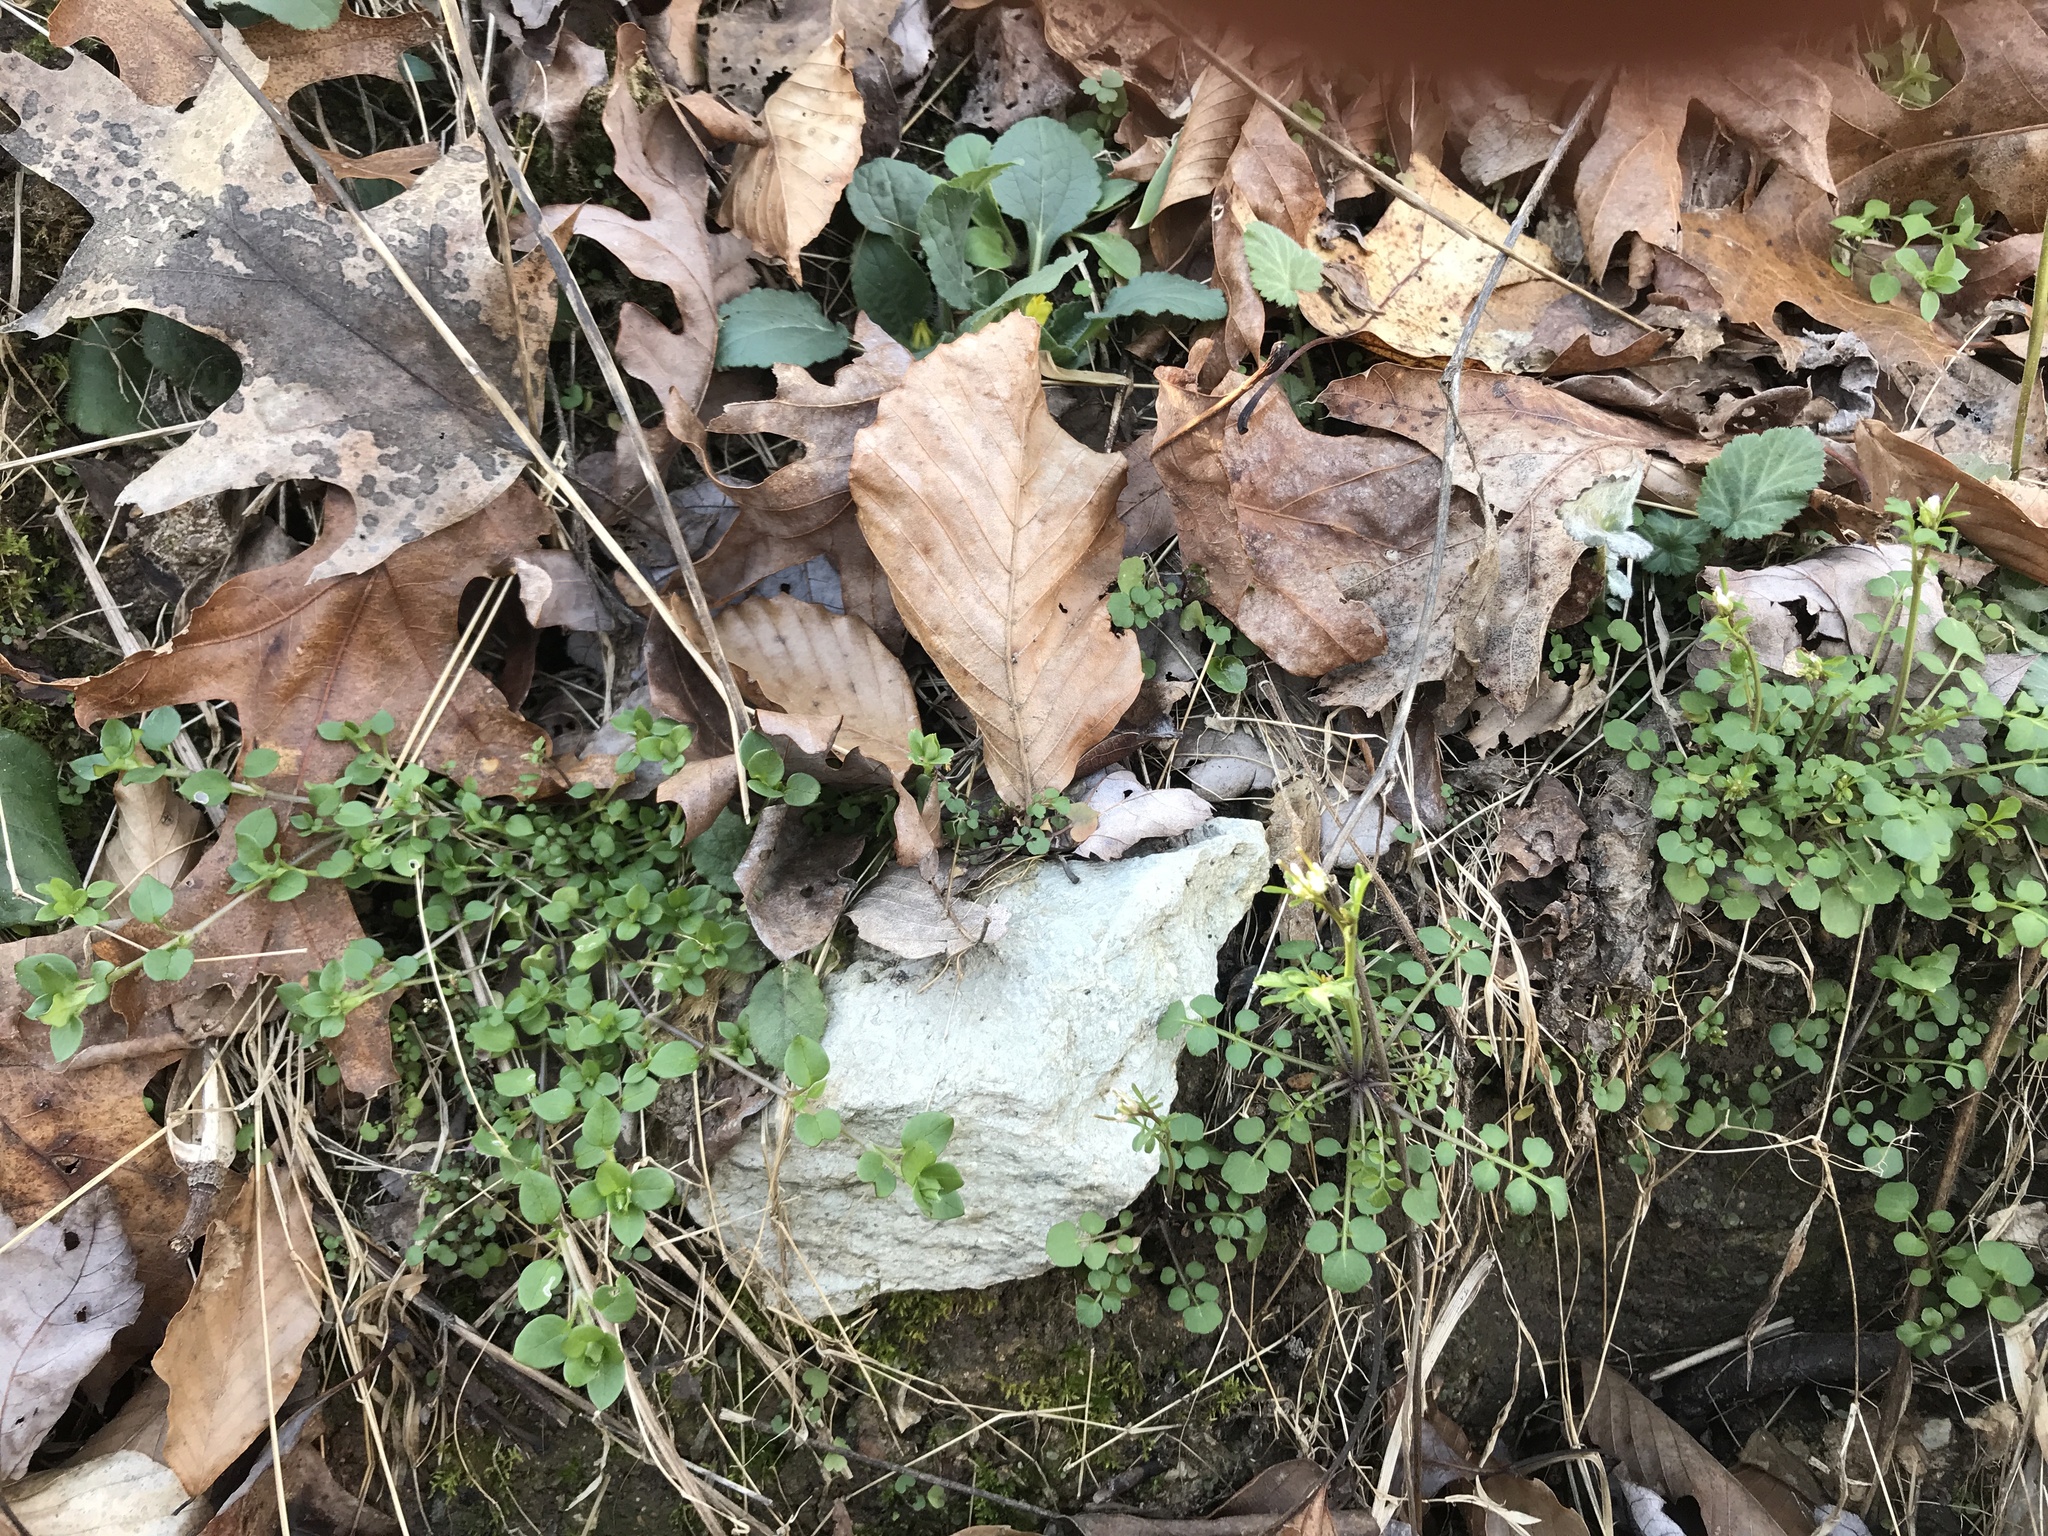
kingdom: Plantae
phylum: Tracheophyta
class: Magnoliopsida
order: Brassicales
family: Brassicaceae
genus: Cardamine
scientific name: Cardamine hirsuta
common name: Hairy bittercress
